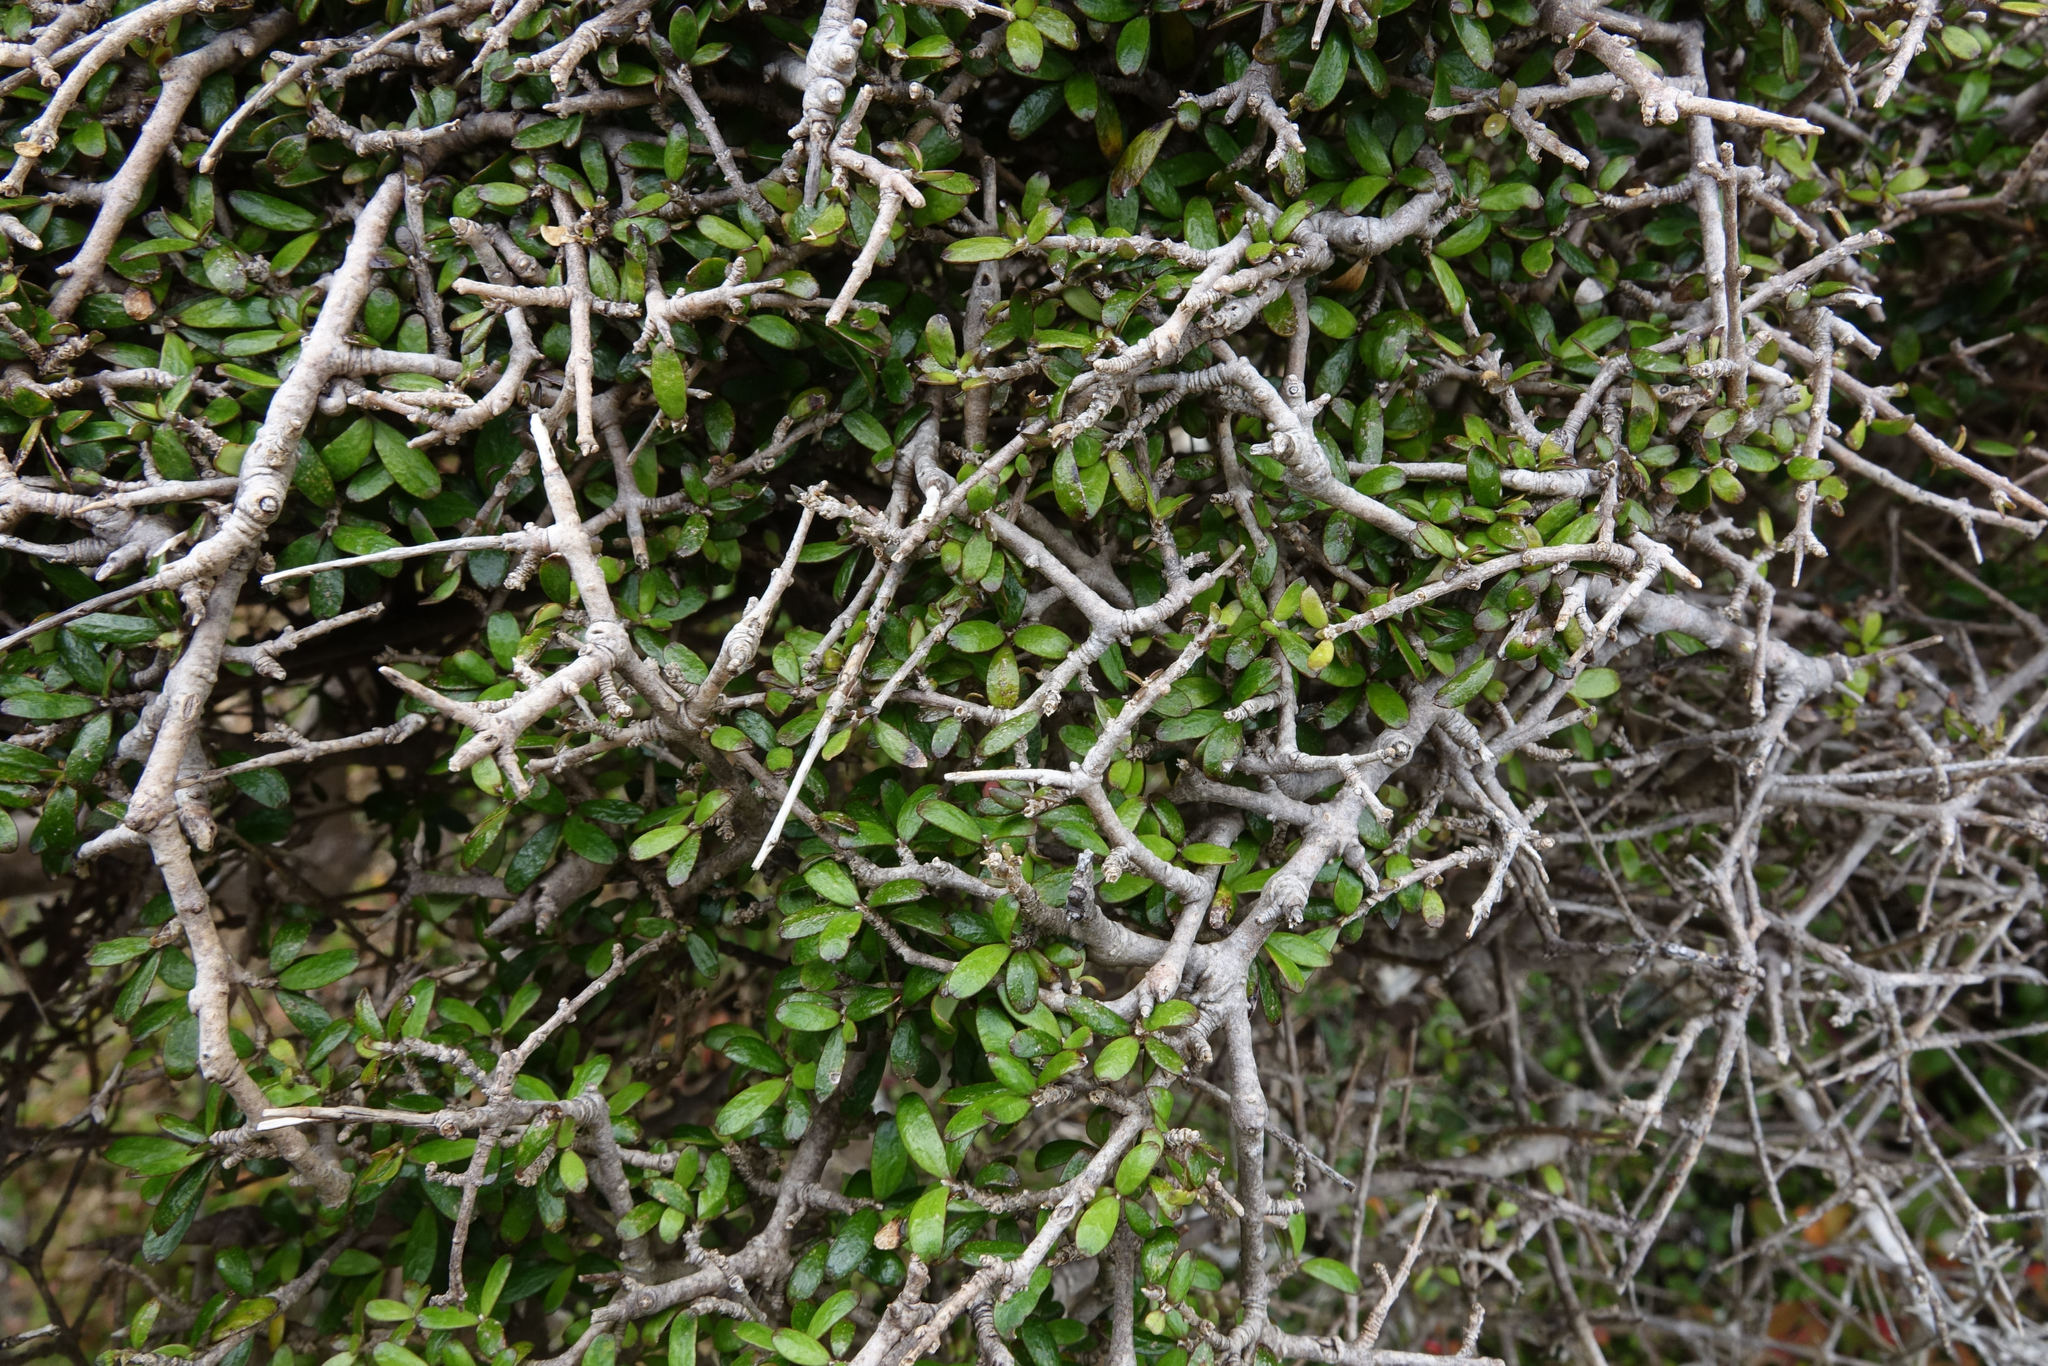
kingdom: Plantae
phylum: Tracheophyta
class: Magnoliopsida
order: Gentianales
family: Rubiaceae
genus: Coprosma
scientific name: Coprosma obconica
